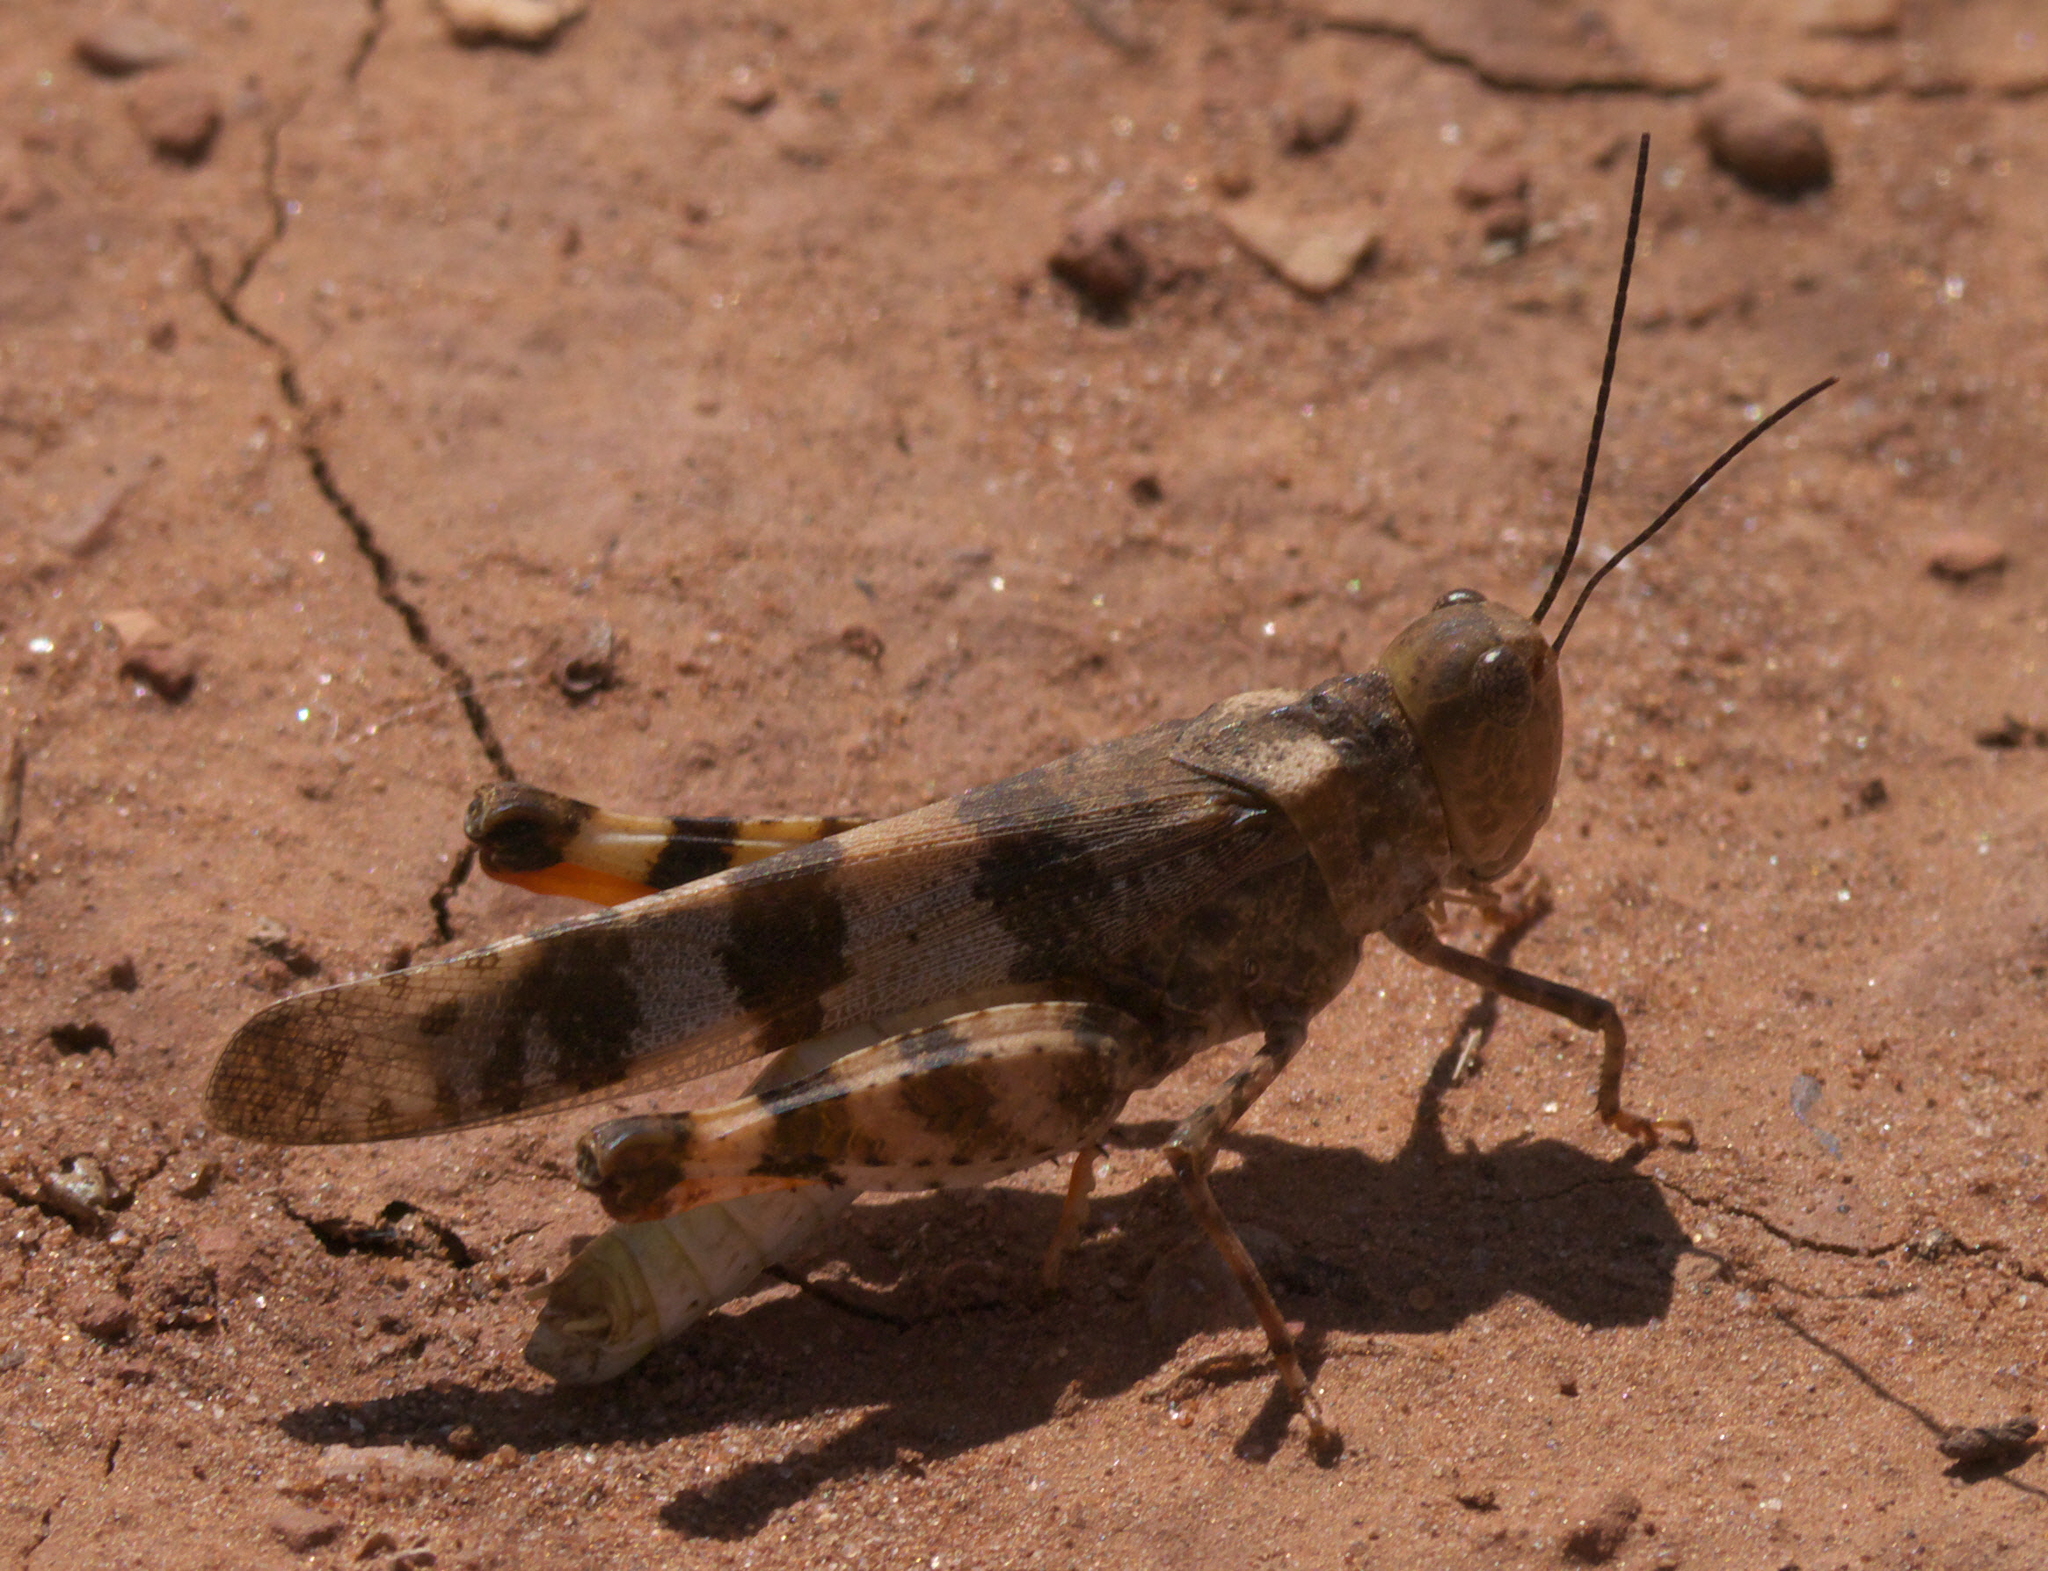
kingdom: Animalia
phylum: Arthropoda
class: Insecta
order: Orthoptera
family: Acrididae
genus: Spharagemon
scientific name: Spharagemon equale
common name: Orange-legged grasshopper
